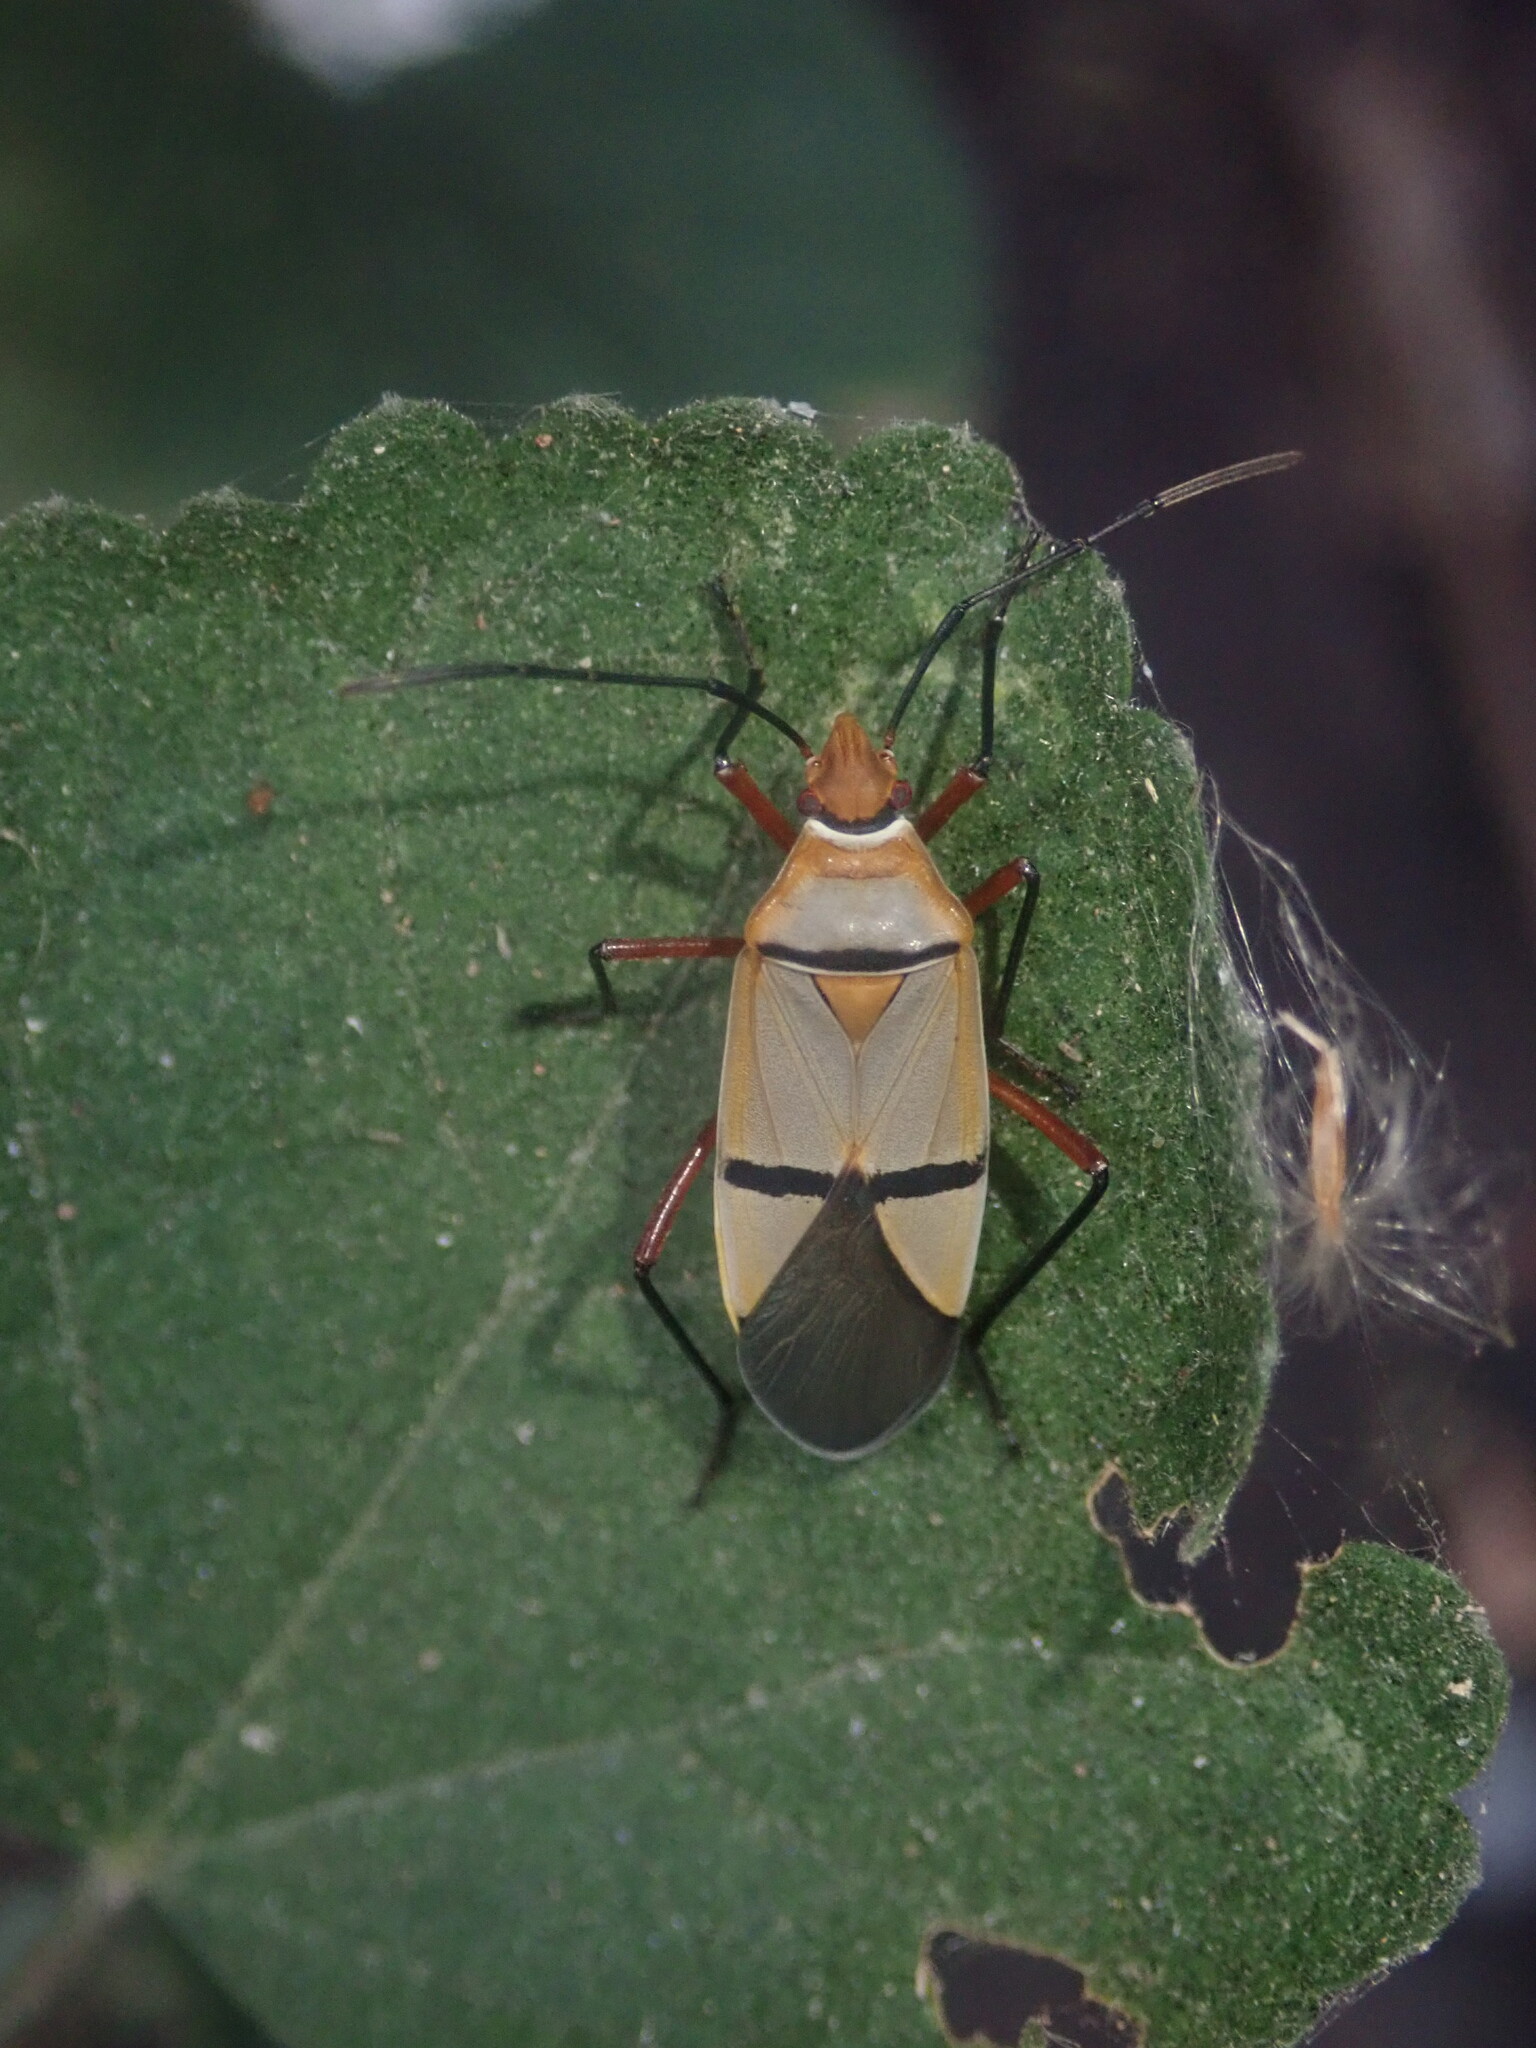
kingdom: Animalia
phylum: Arthropoda
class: Insecta
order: Hemiptera
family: Pyrrhocoridae
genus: Dysdercus
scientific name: Dysdercus
